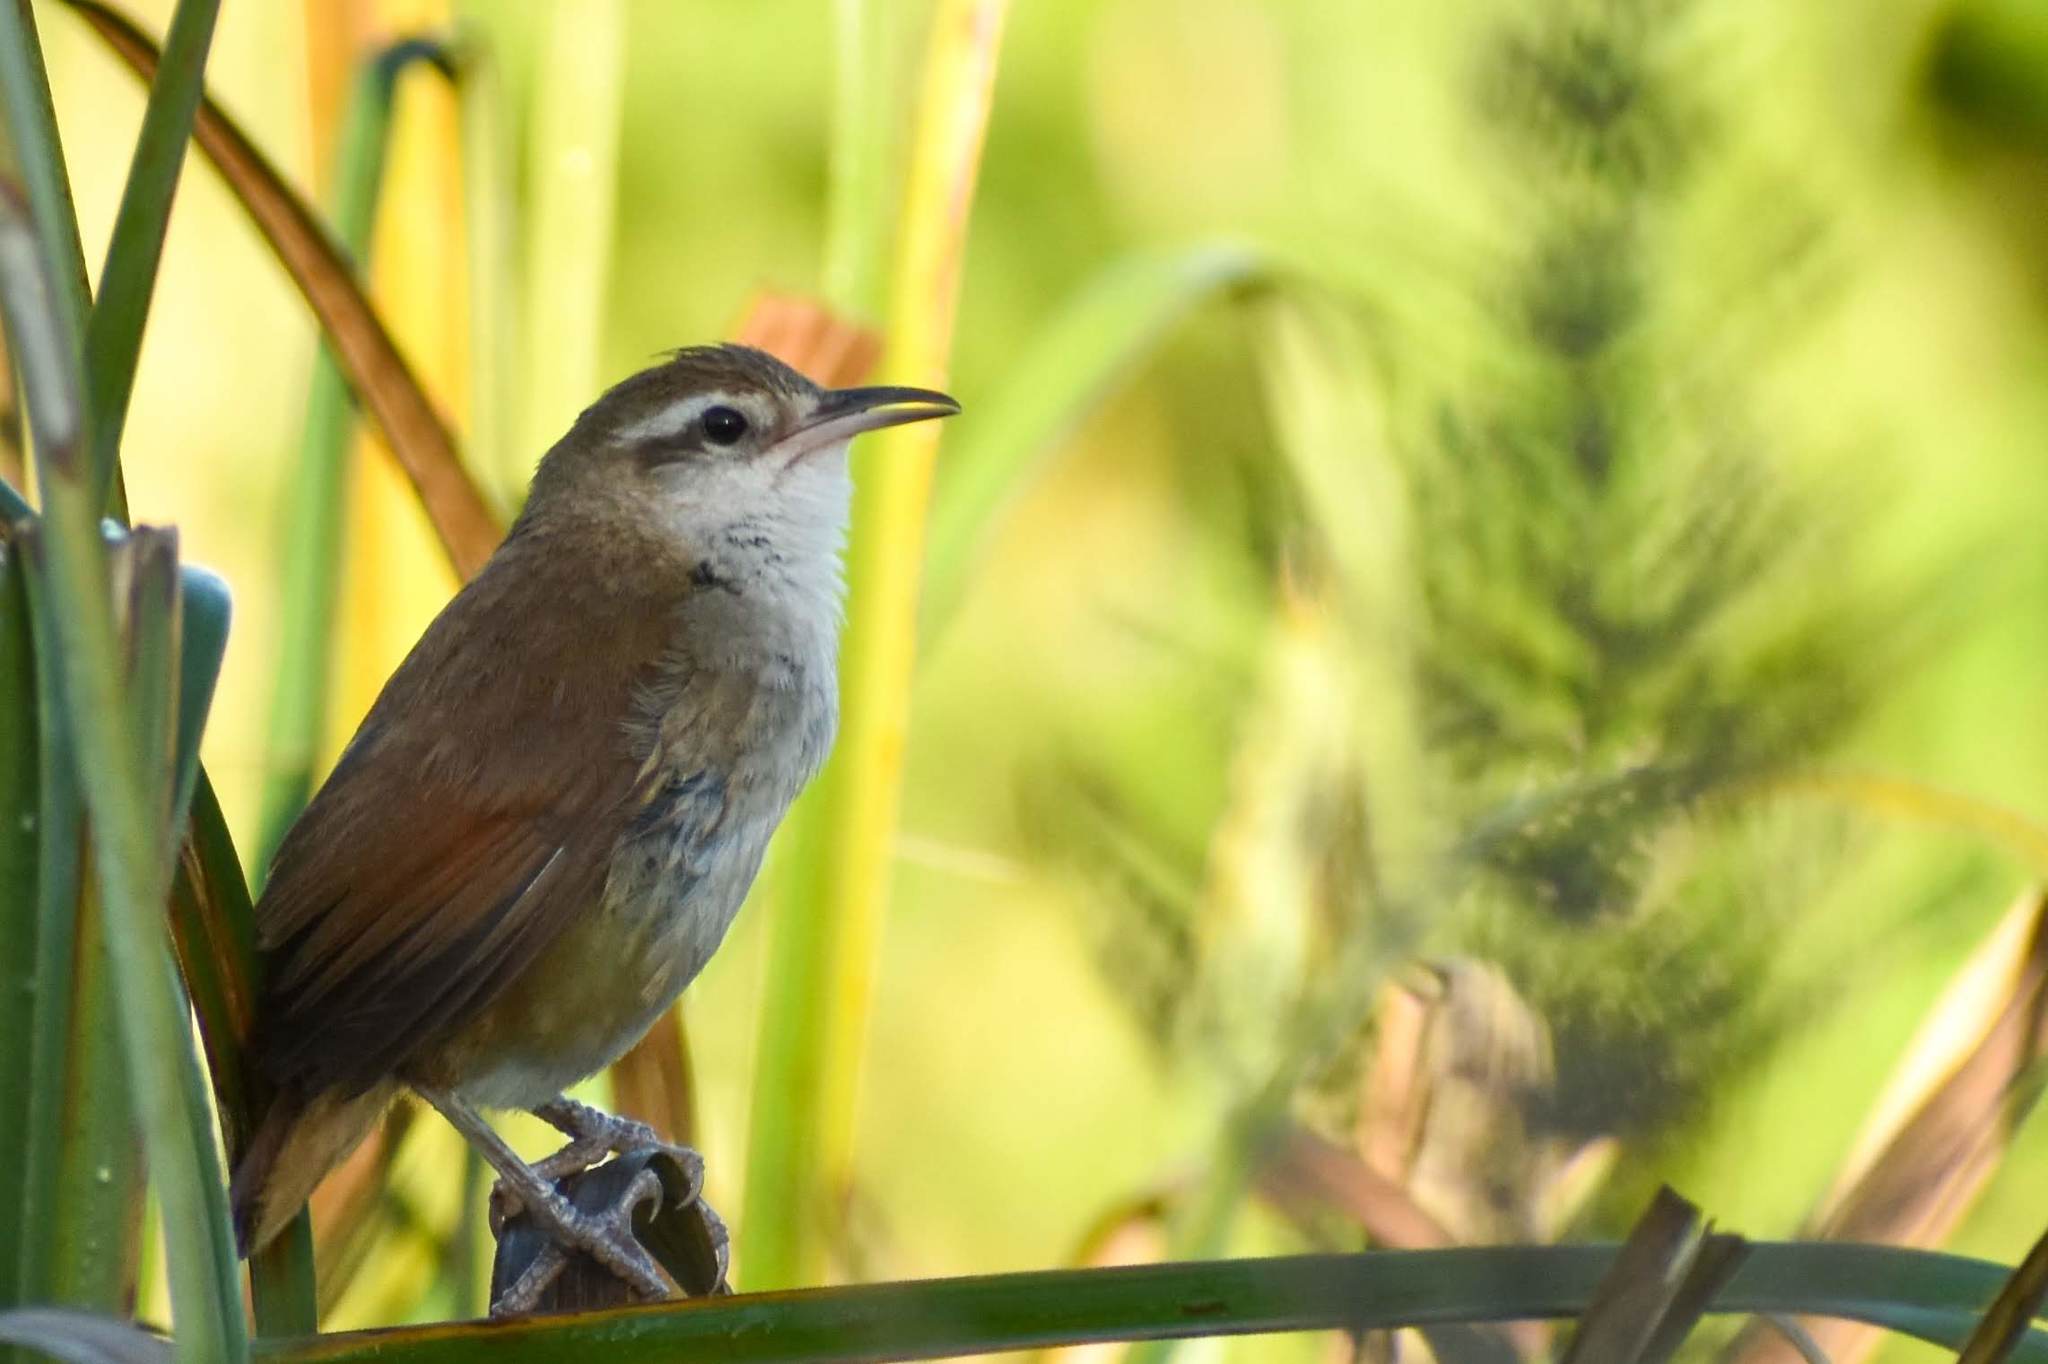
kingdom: Animalia
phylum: Chordata
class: Aves
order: Passeriformes
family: Furnariidae
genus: Limnornis
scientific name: Limnornis curvirostris
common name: Curve-billed reedhaunter
